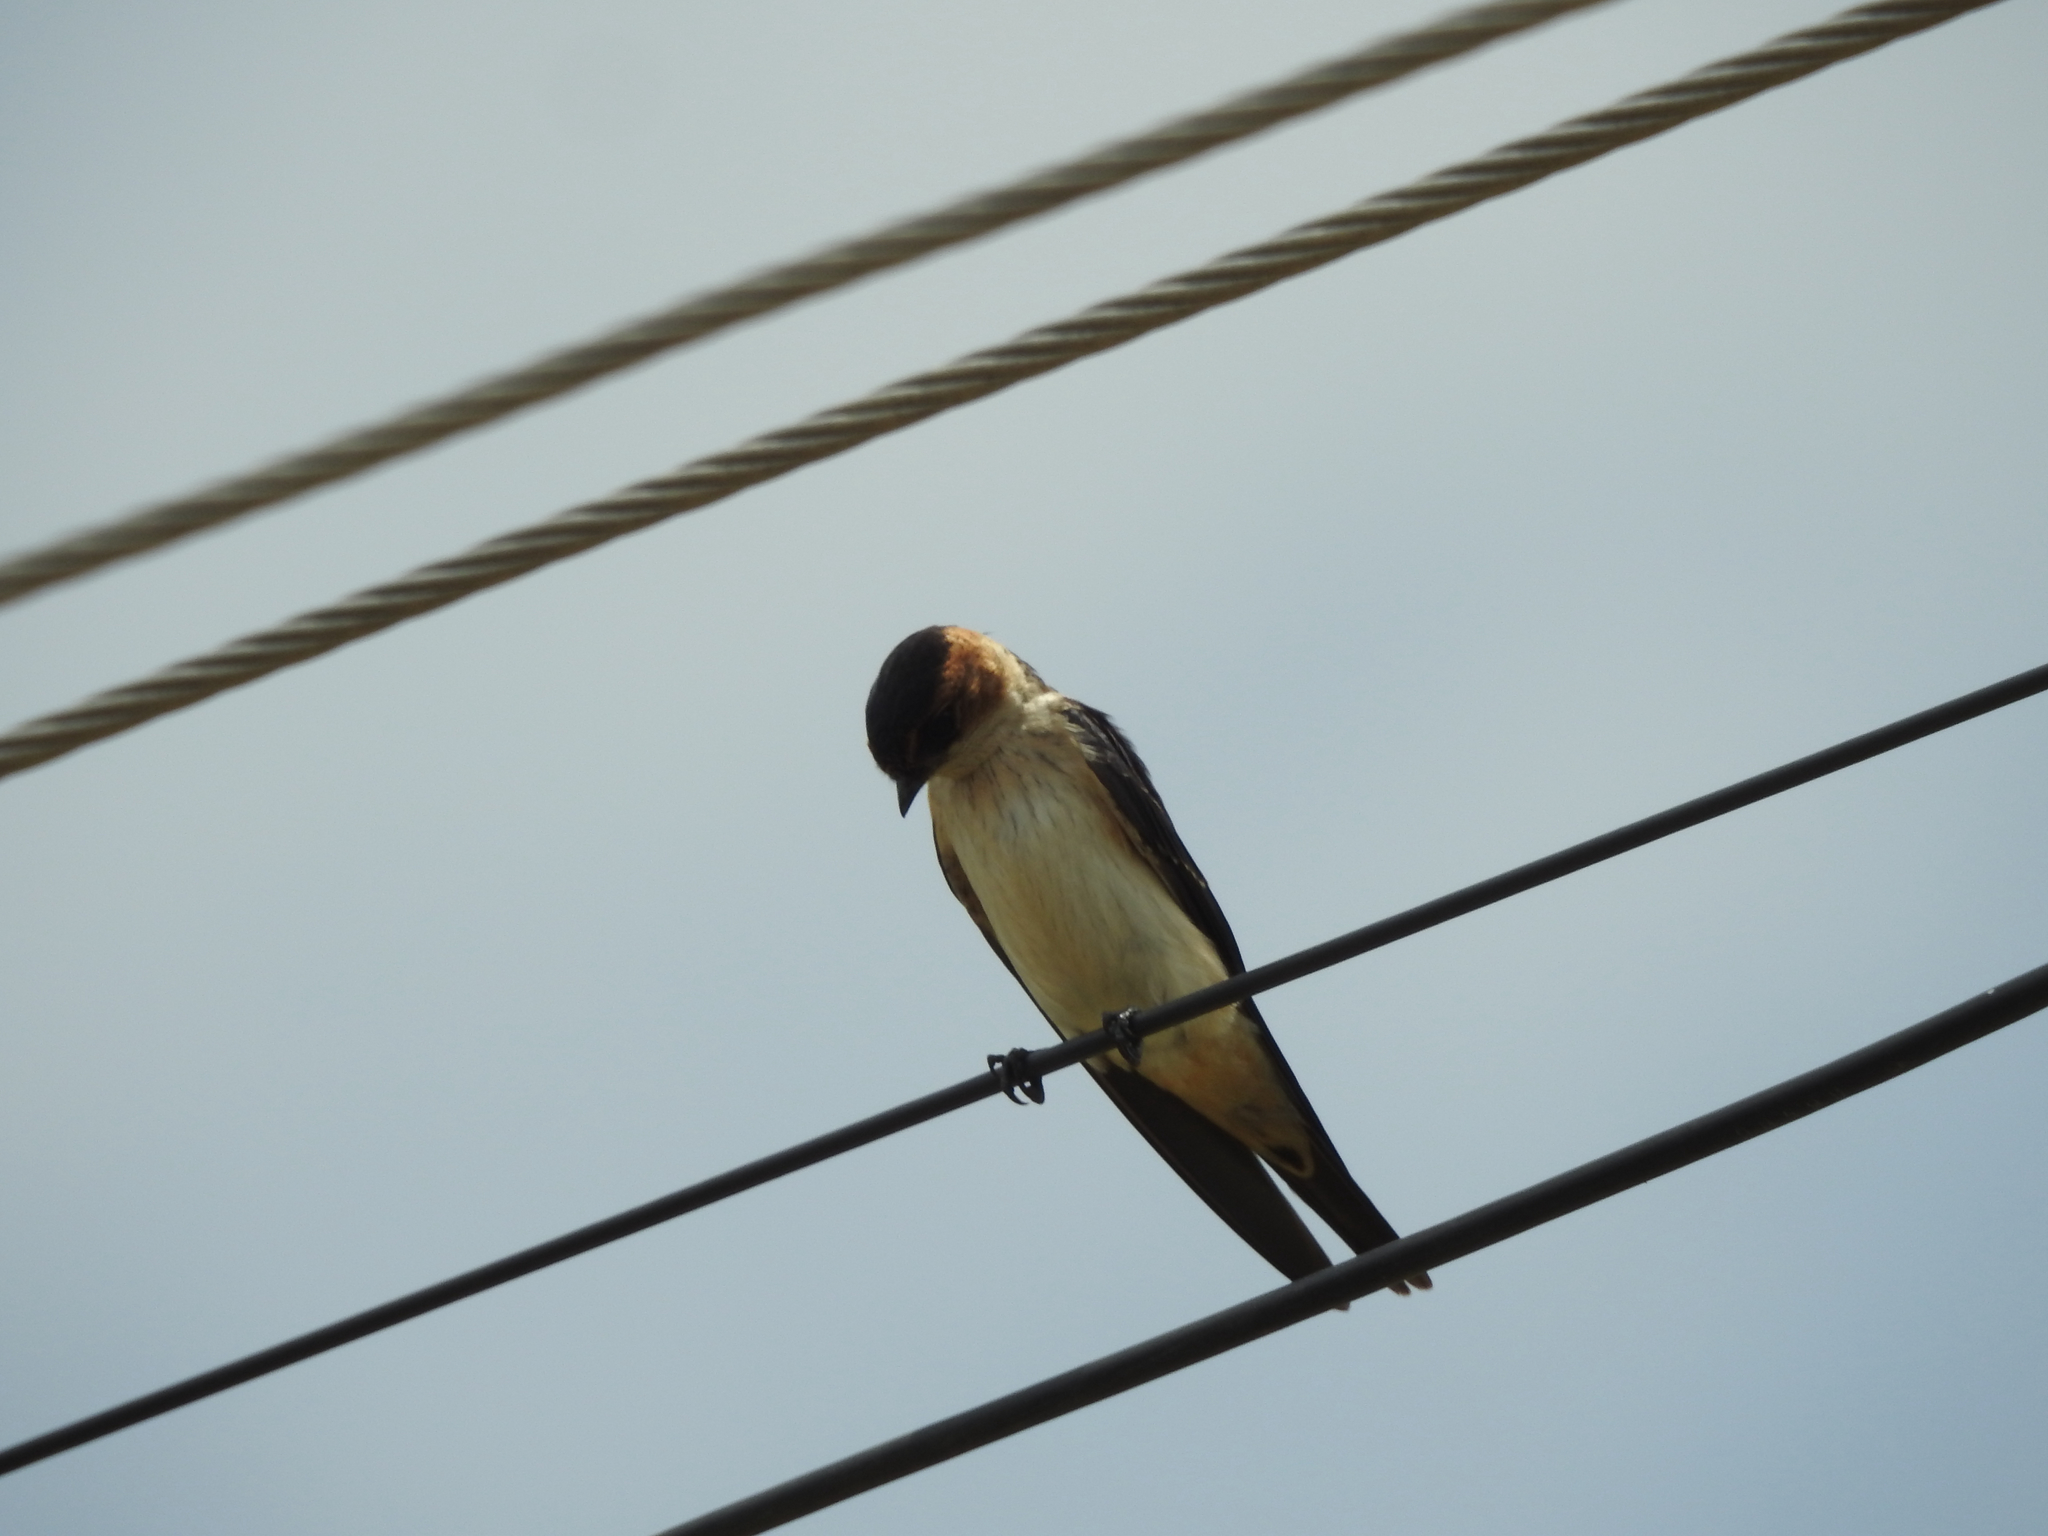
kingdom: Animalia
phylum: Chordata
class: Aves
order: Passeriformes
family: Hirundinidae
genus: Cecropis
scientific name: Cecropis daurica
